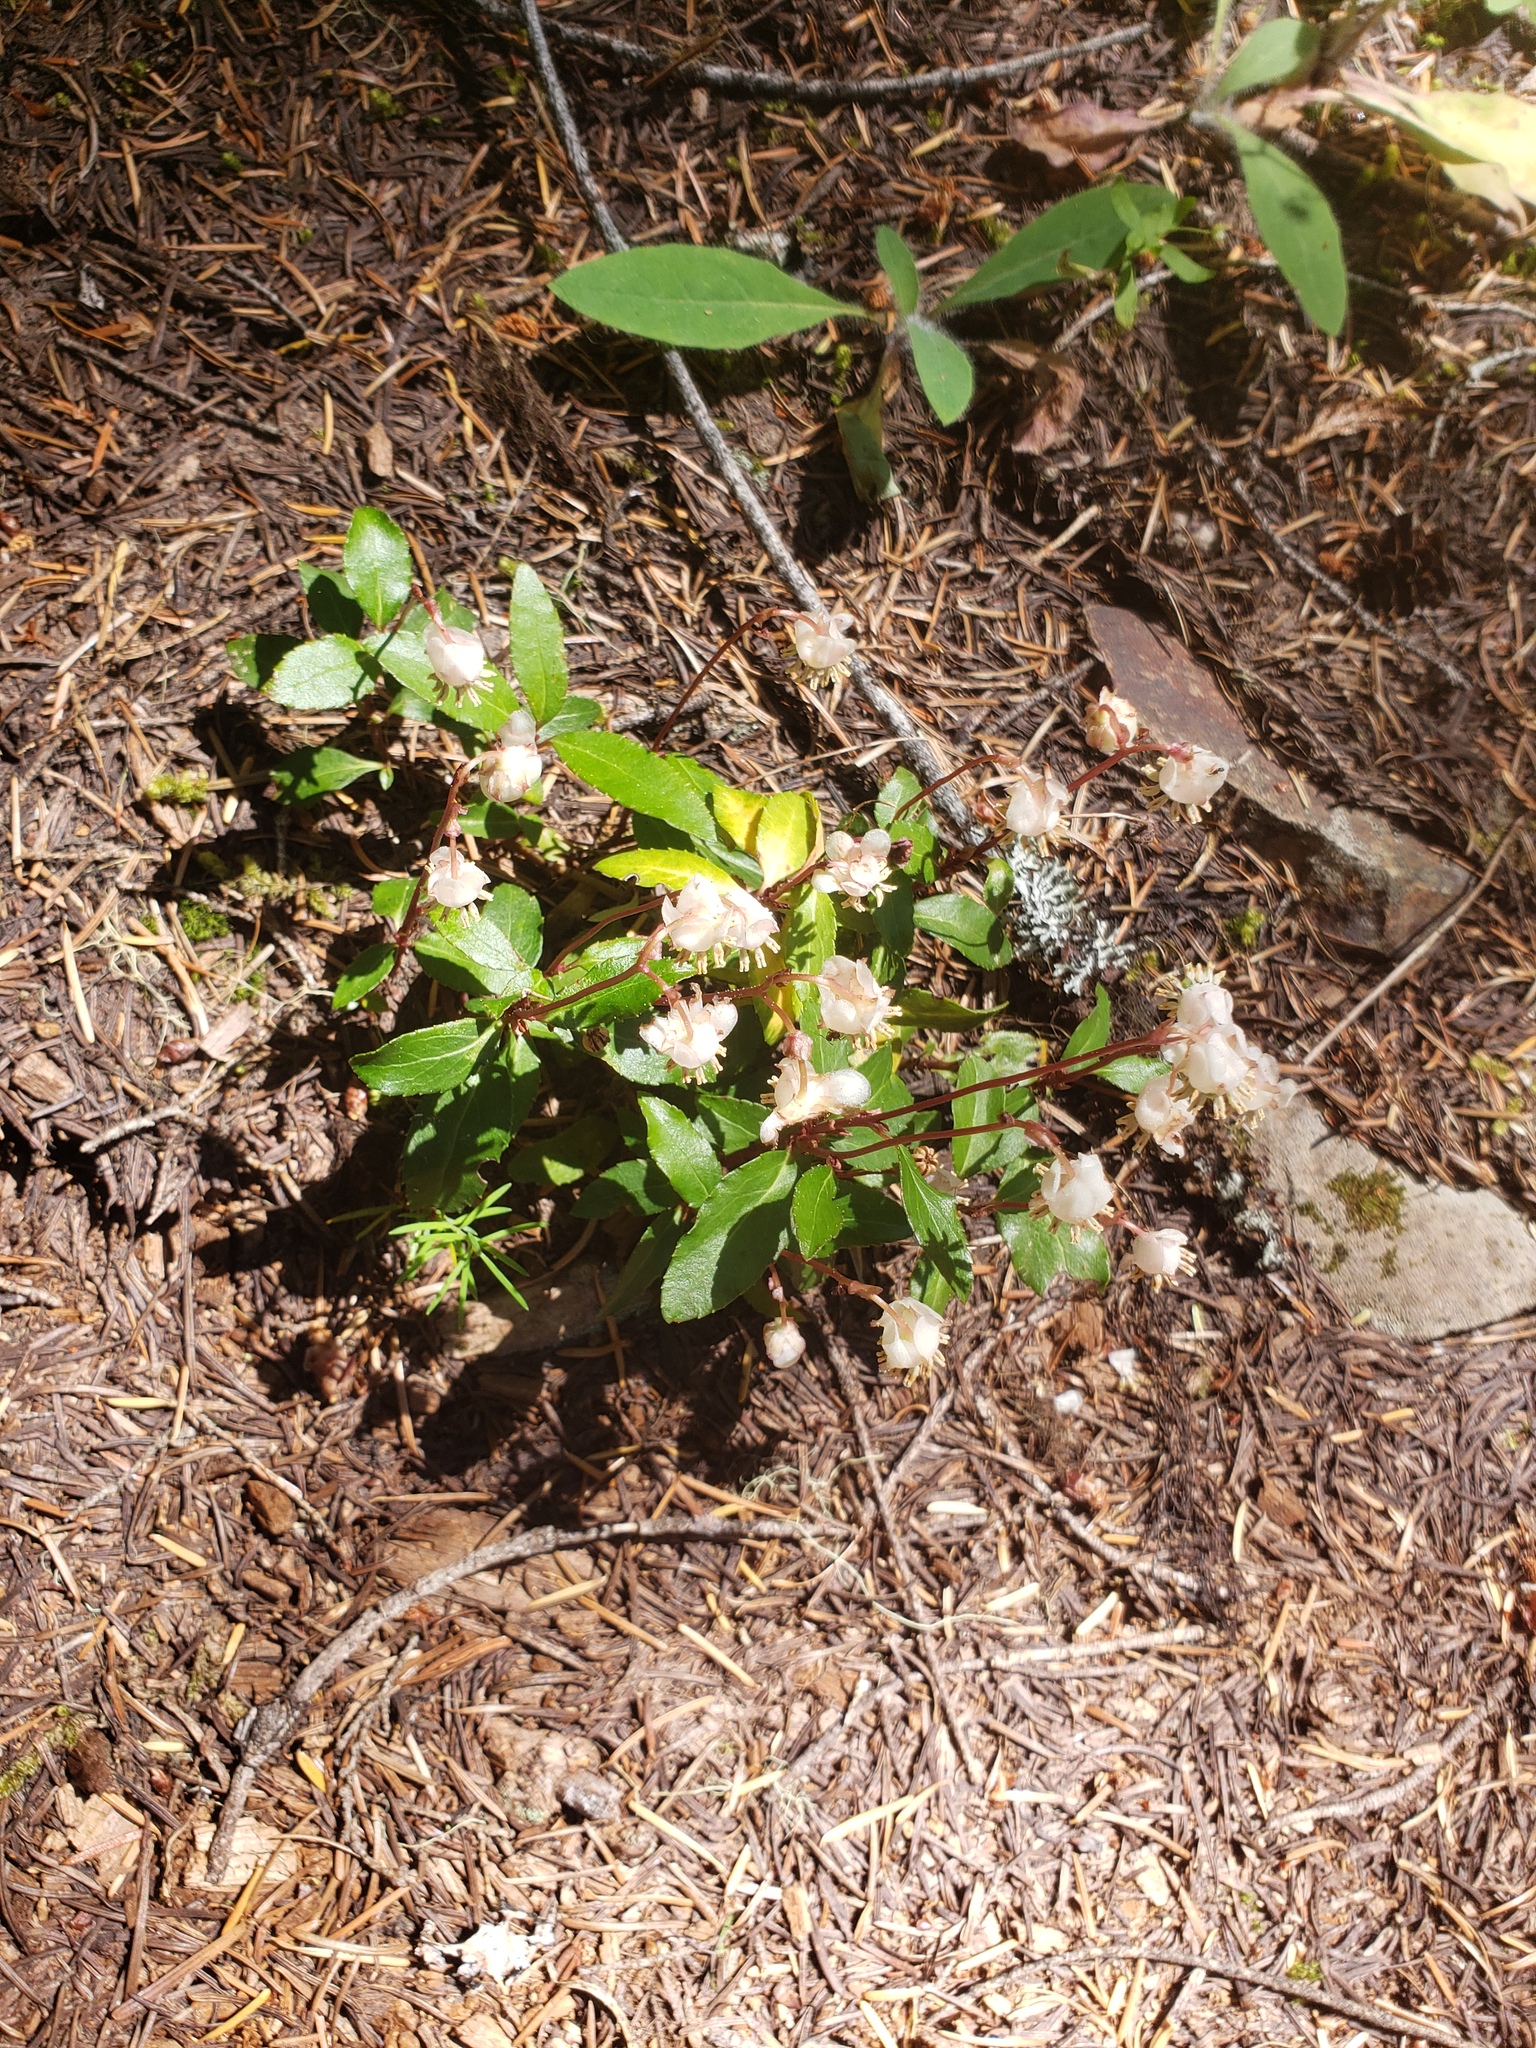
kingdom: Plantae
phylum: Tracheophyta
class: Magnoliopsida
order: Ericales
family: Ericaceae
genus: Chimaphila
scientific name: Chimaphila menziesii
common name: Menzies' pipsissewa
